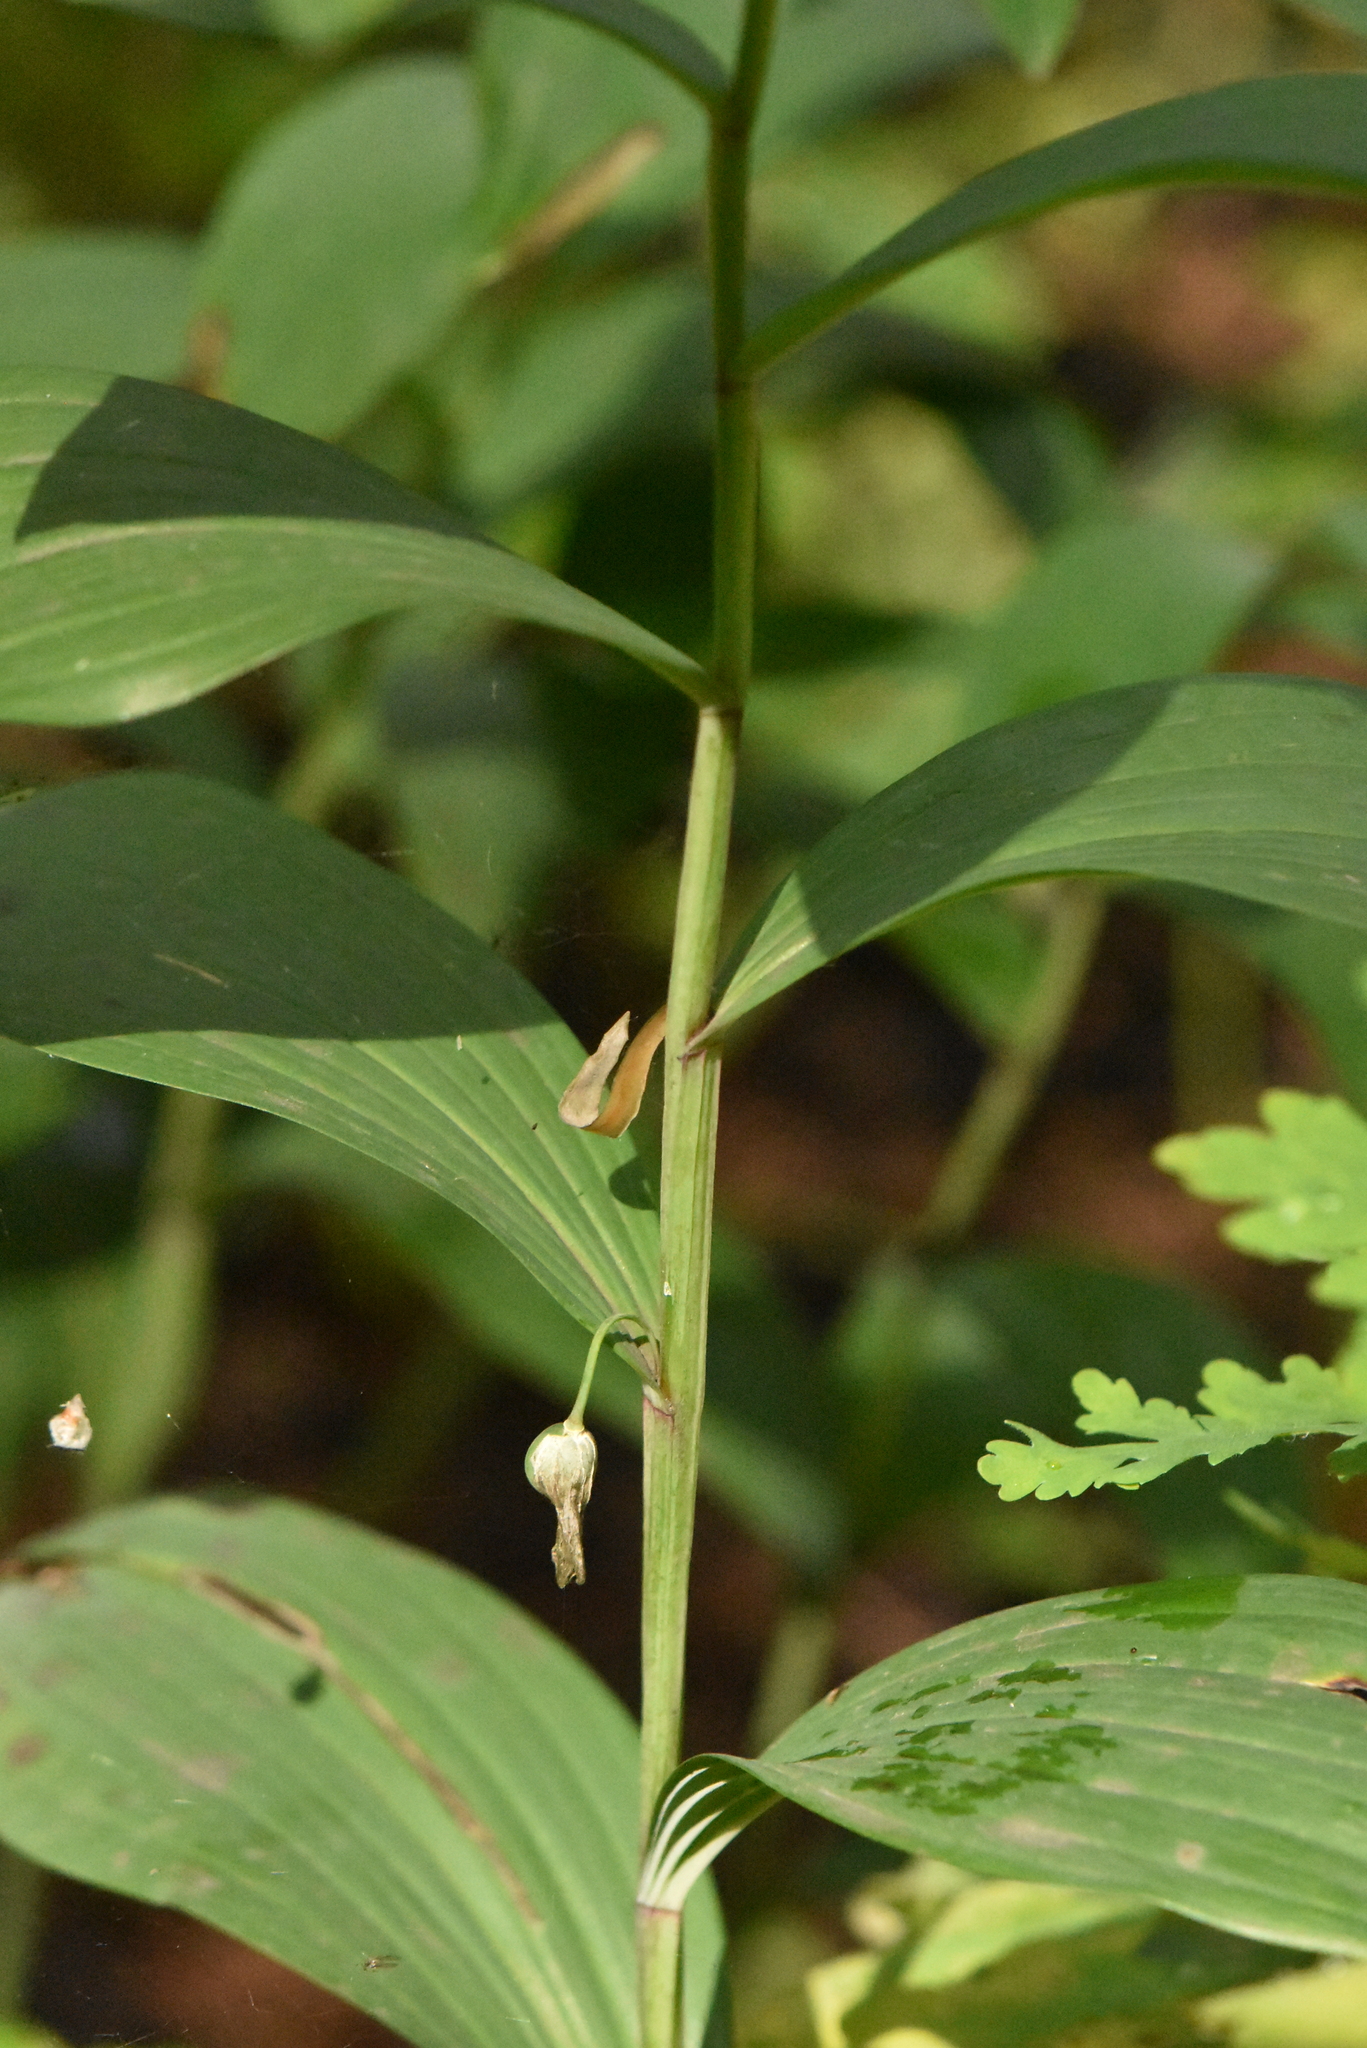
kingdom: Plantae
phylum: Tracheophyta
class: Liliopsida
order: Asparagales
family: Asparagaceae
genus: Polygonatum
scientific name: Polygonatum odoratum
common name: Angular solomon's-seal
